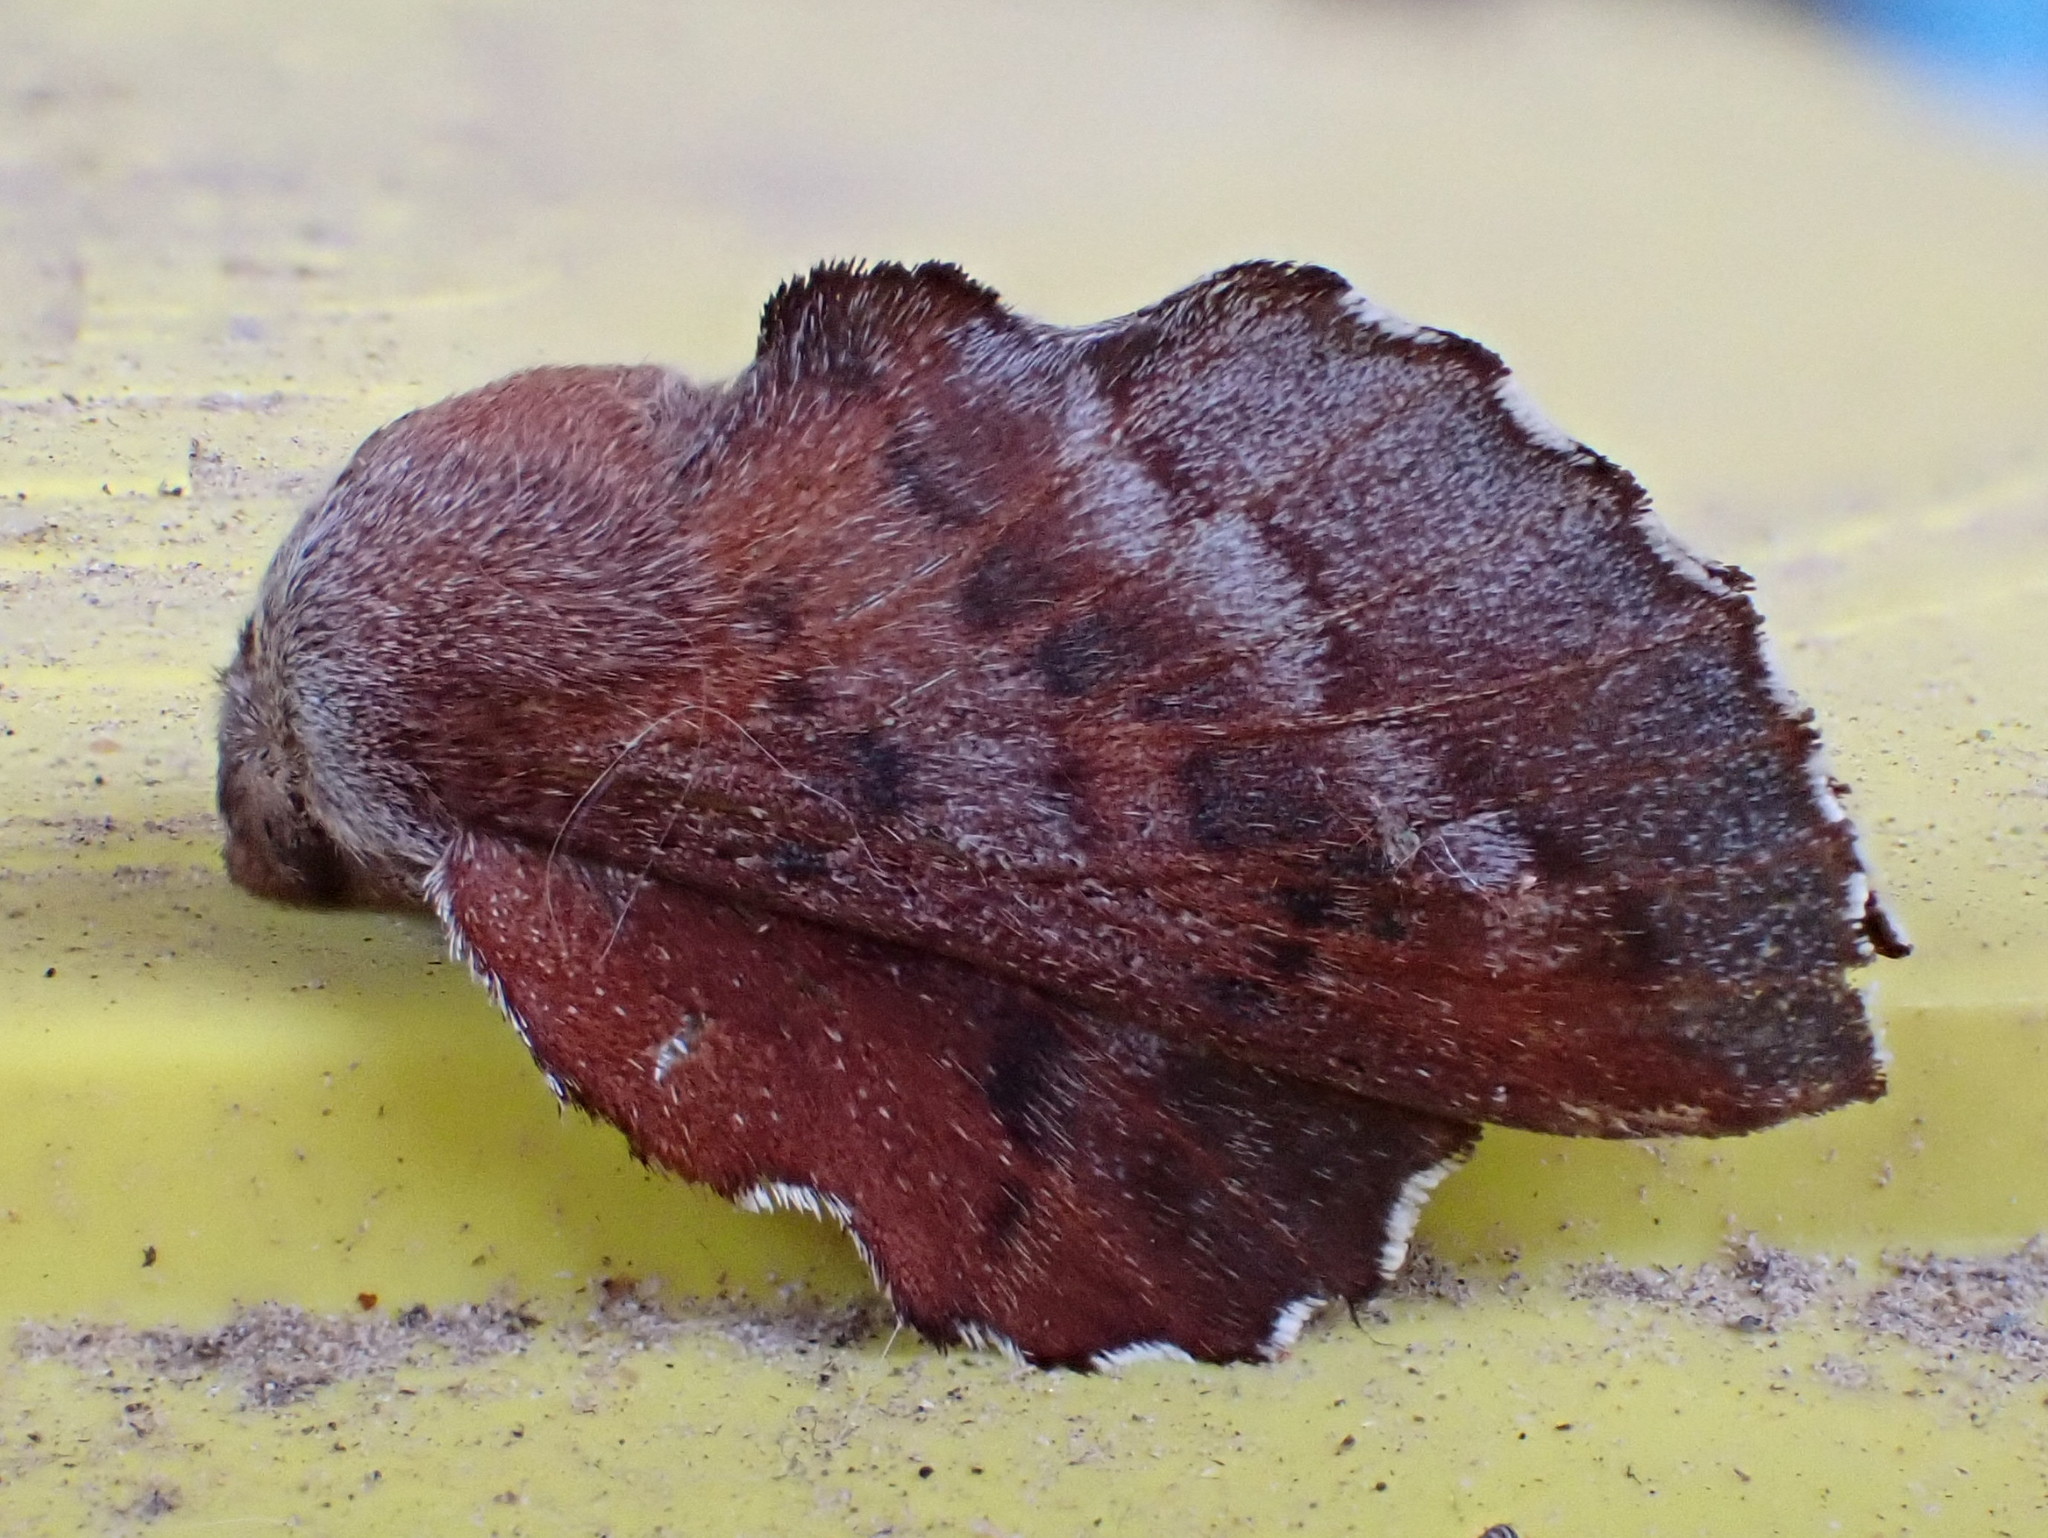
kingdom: Animalia
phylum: Arthropoda
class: Insecta
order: Lepidoptera
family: Lasiocampidae
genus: Phyllodesma
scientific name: Phyllodesma americana
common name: American lappet moth
